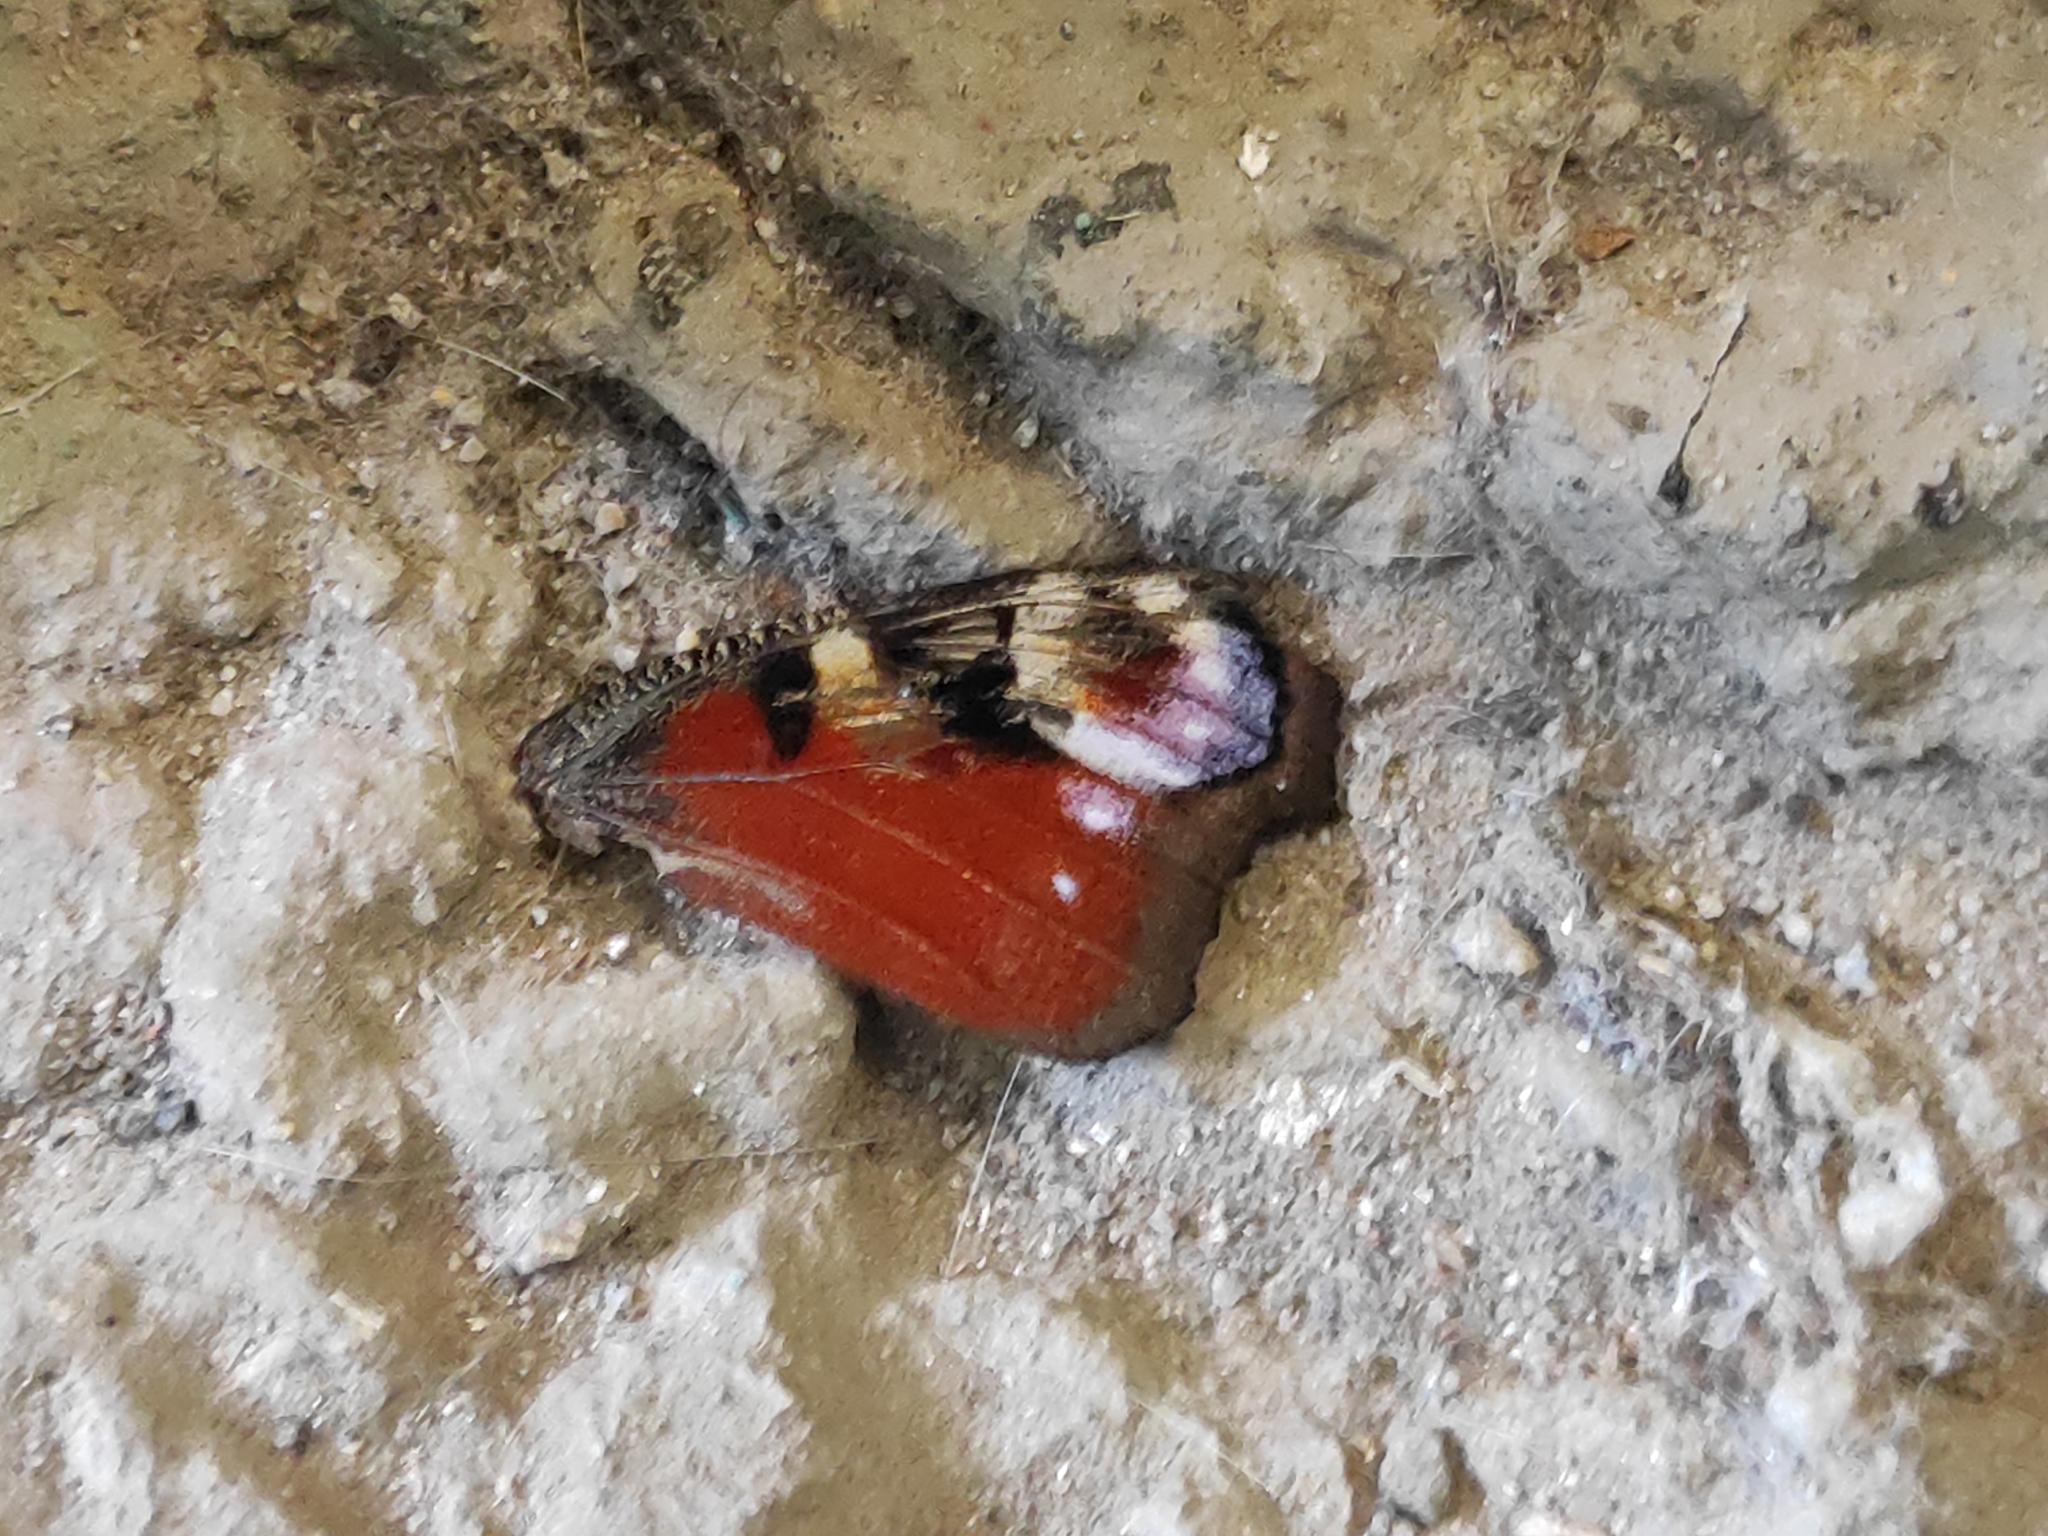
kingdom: Animalia
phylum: Arthropoda
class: Insecta
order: Lepidoptera
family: Nymphalidae
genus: Aglais
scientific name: Aglais io
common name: Peacock
